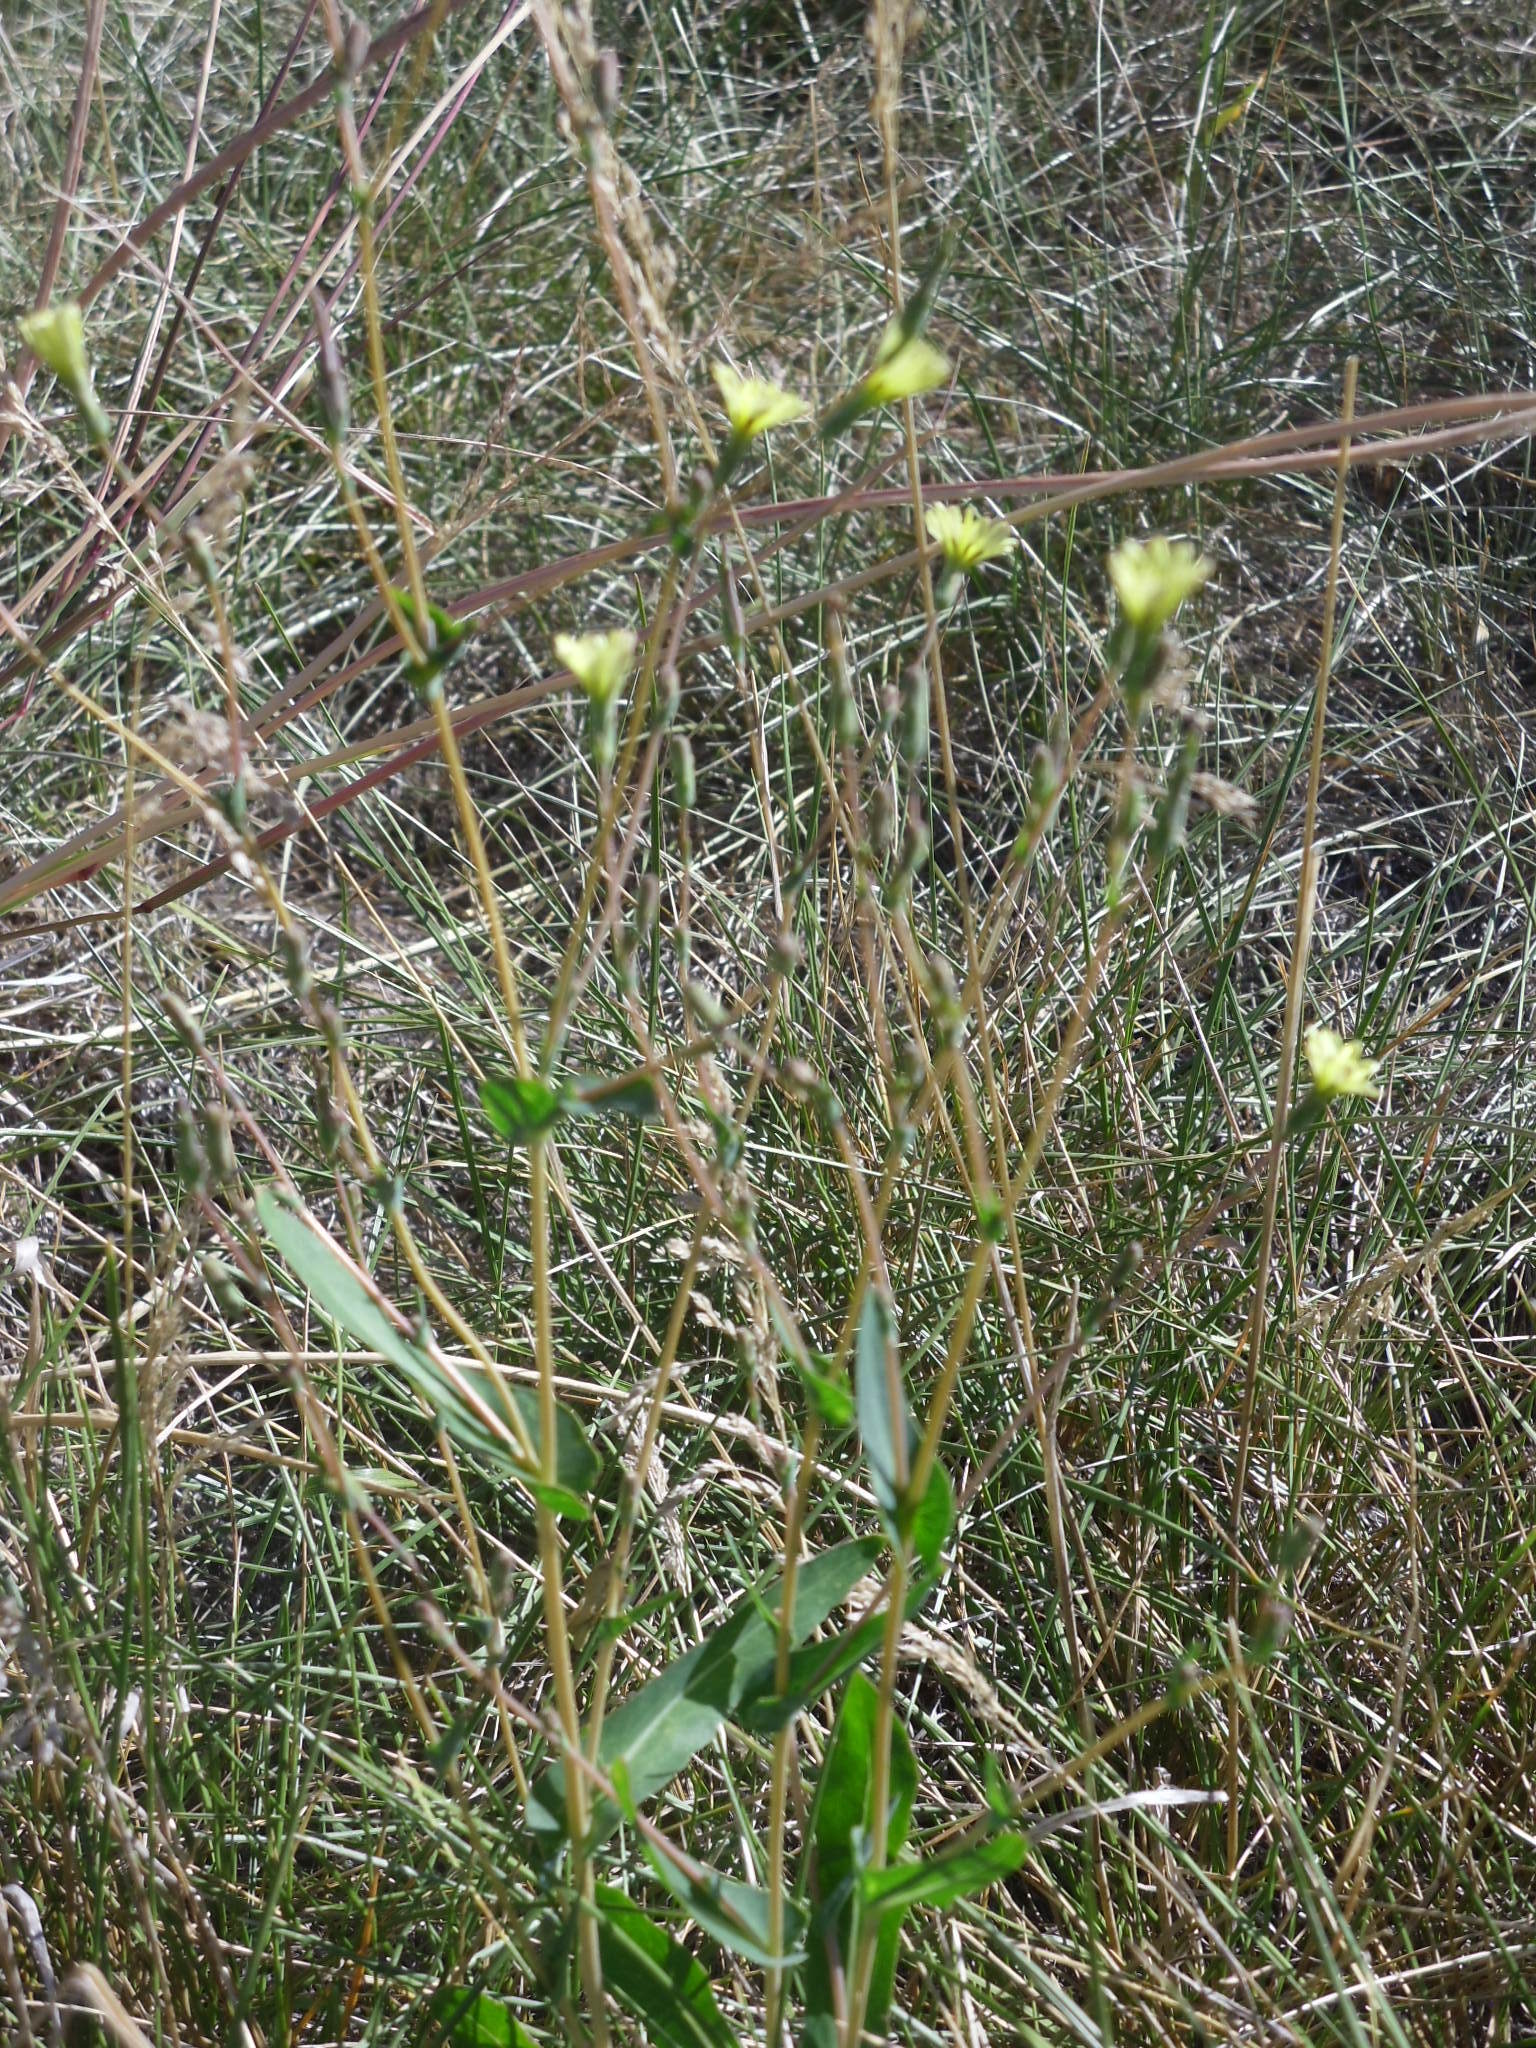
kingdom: Plantae
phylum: Tracheophyta
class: Magnoliopsida
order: Asterales
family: Asteraceae
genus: Lactuca
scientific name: Lactuca serriola
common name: Prickly lettuce
